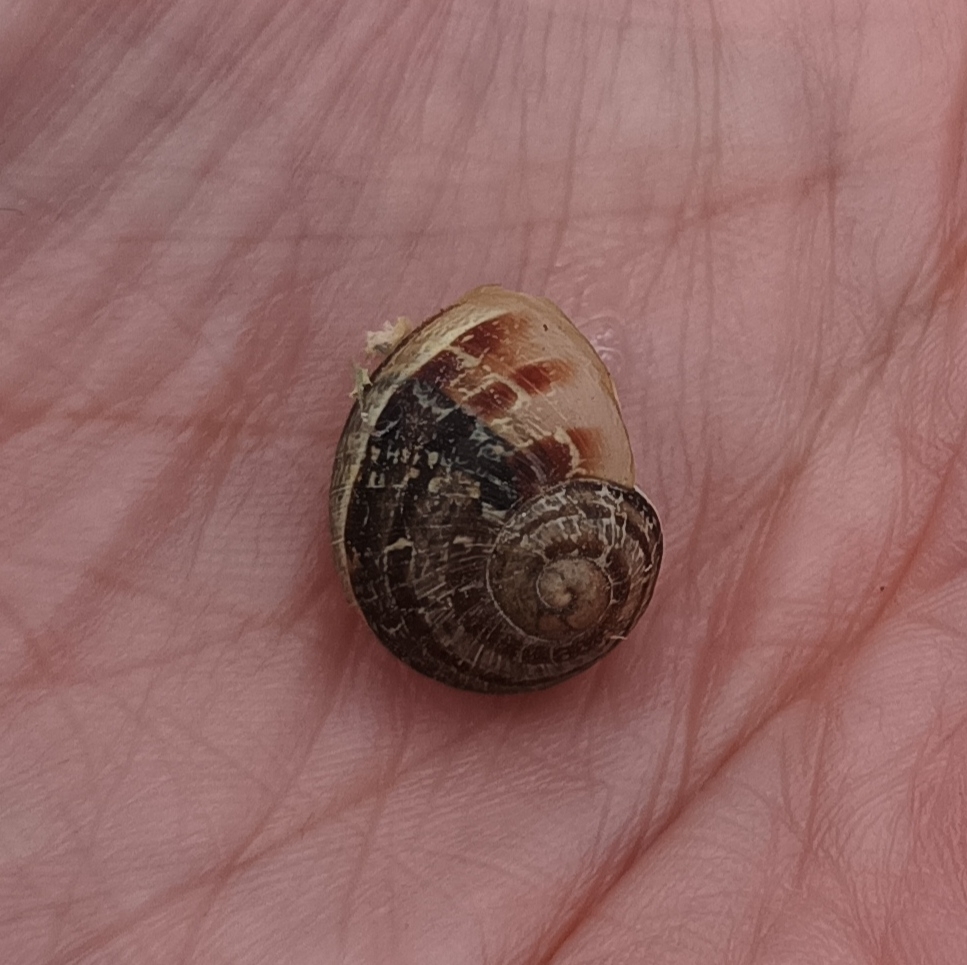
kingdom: Animalia
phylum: Mollusca
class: Gastropoda
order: Stylommatophora
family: Helicidae
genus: Cornu
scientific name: Cornu aspersum
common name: Brown garden snail
